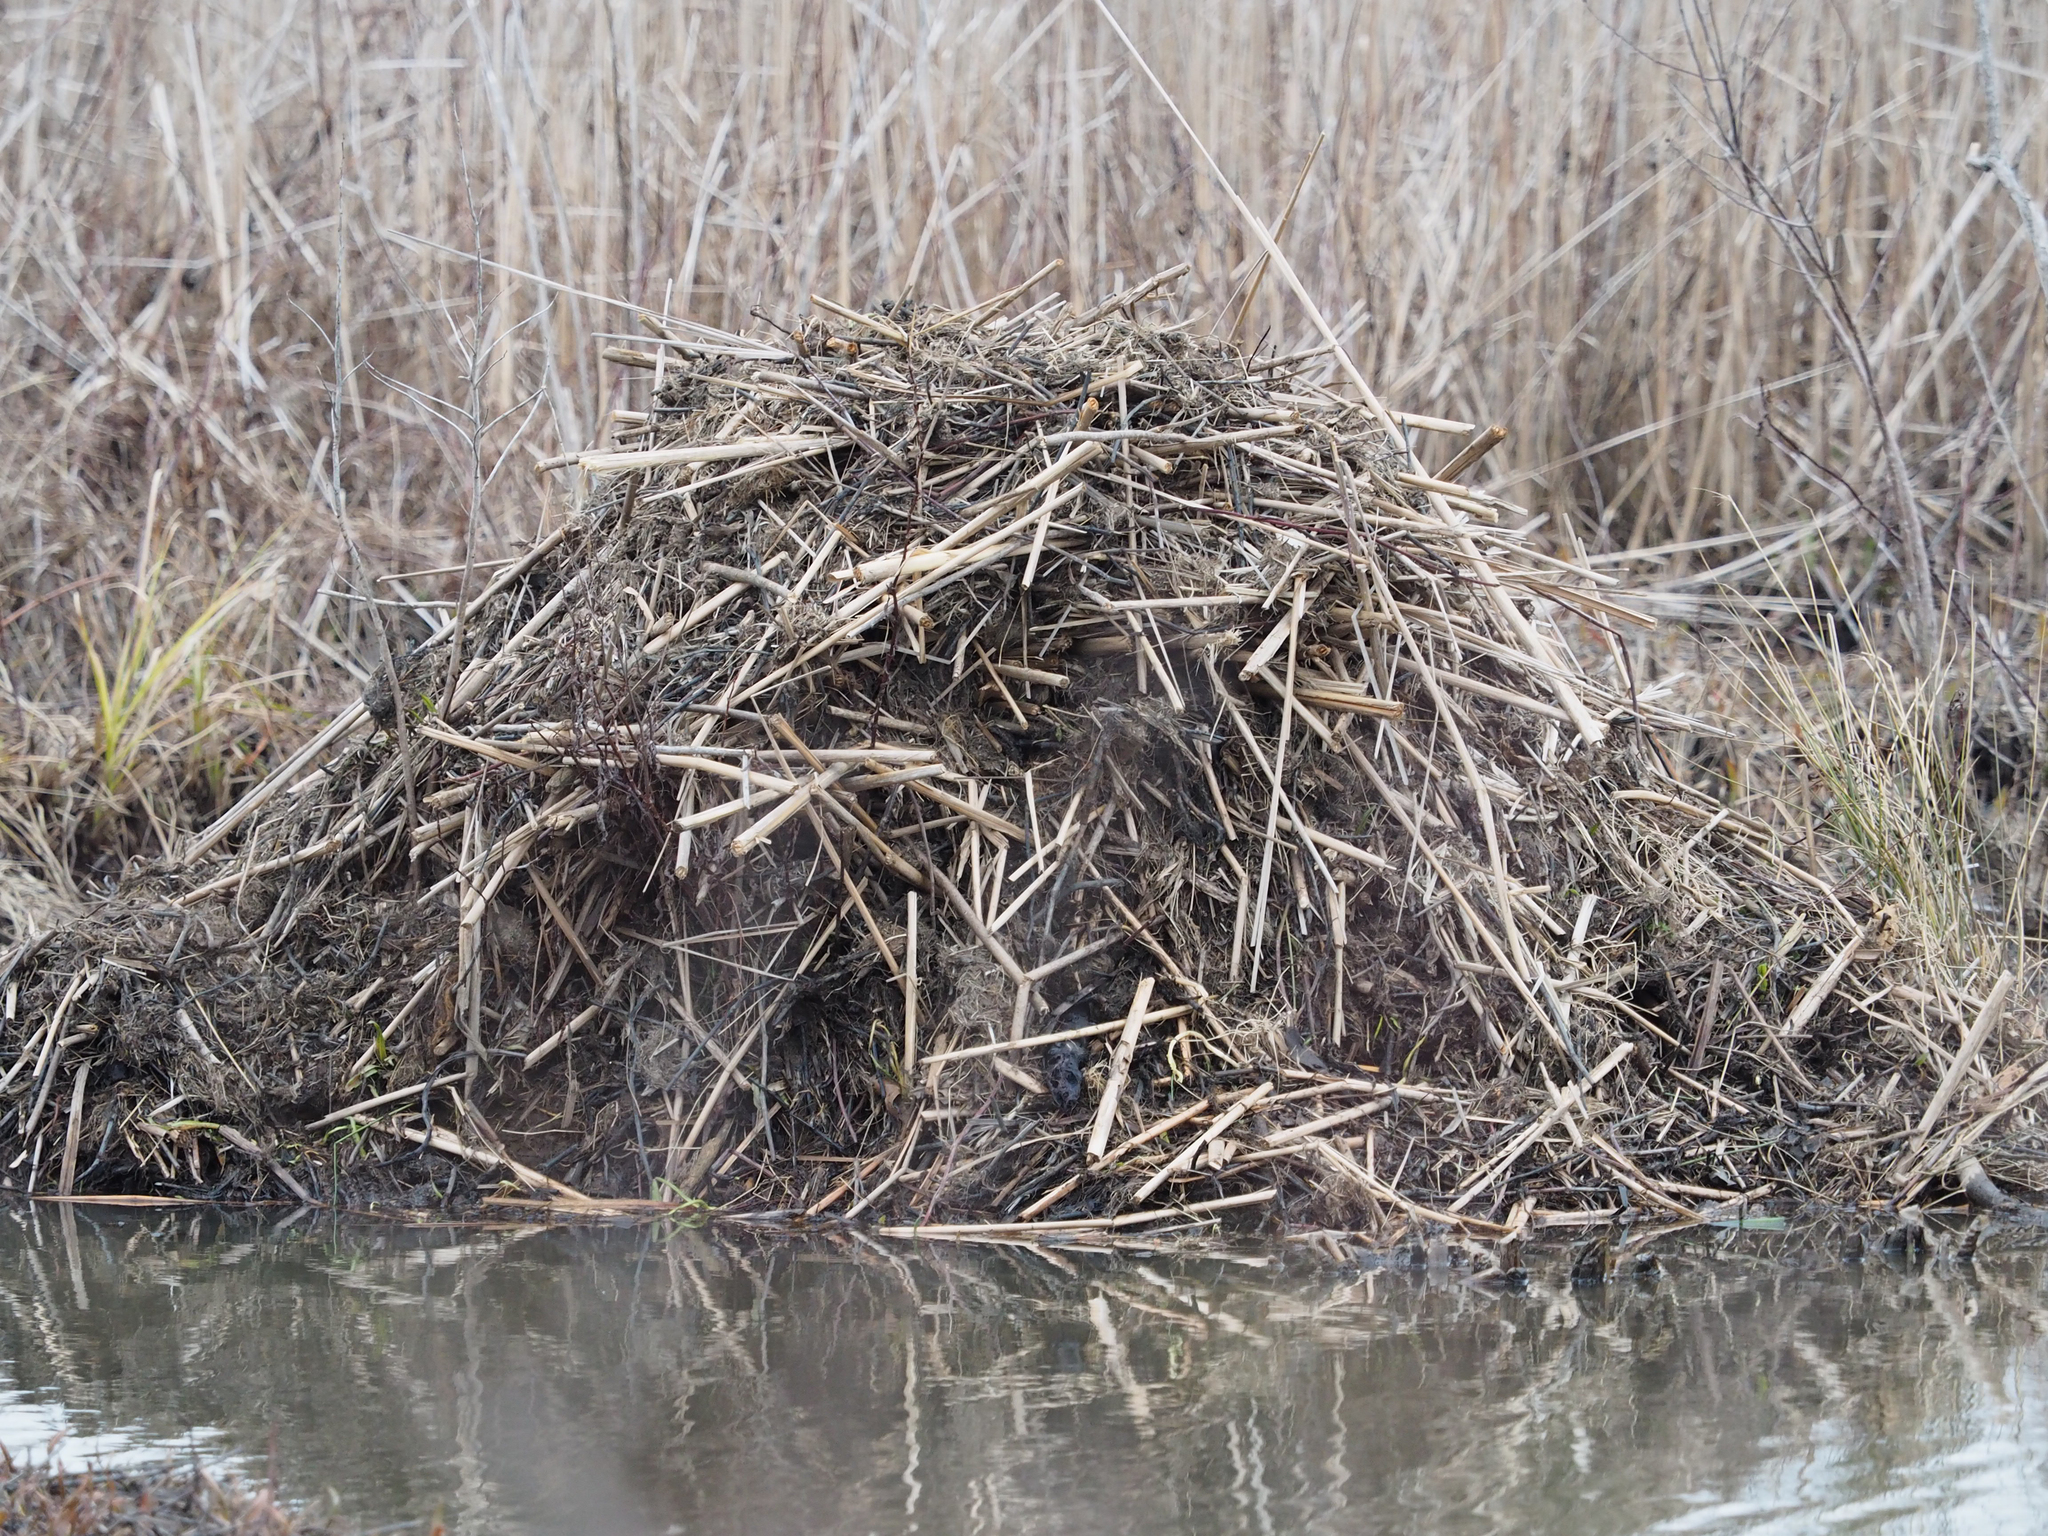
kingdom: Animalia
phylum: Chordata
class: Mammalia
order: Rodentia
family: Cricetidae
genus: Ondatra
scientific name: Ondatra zibethicus
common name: Muskrat
